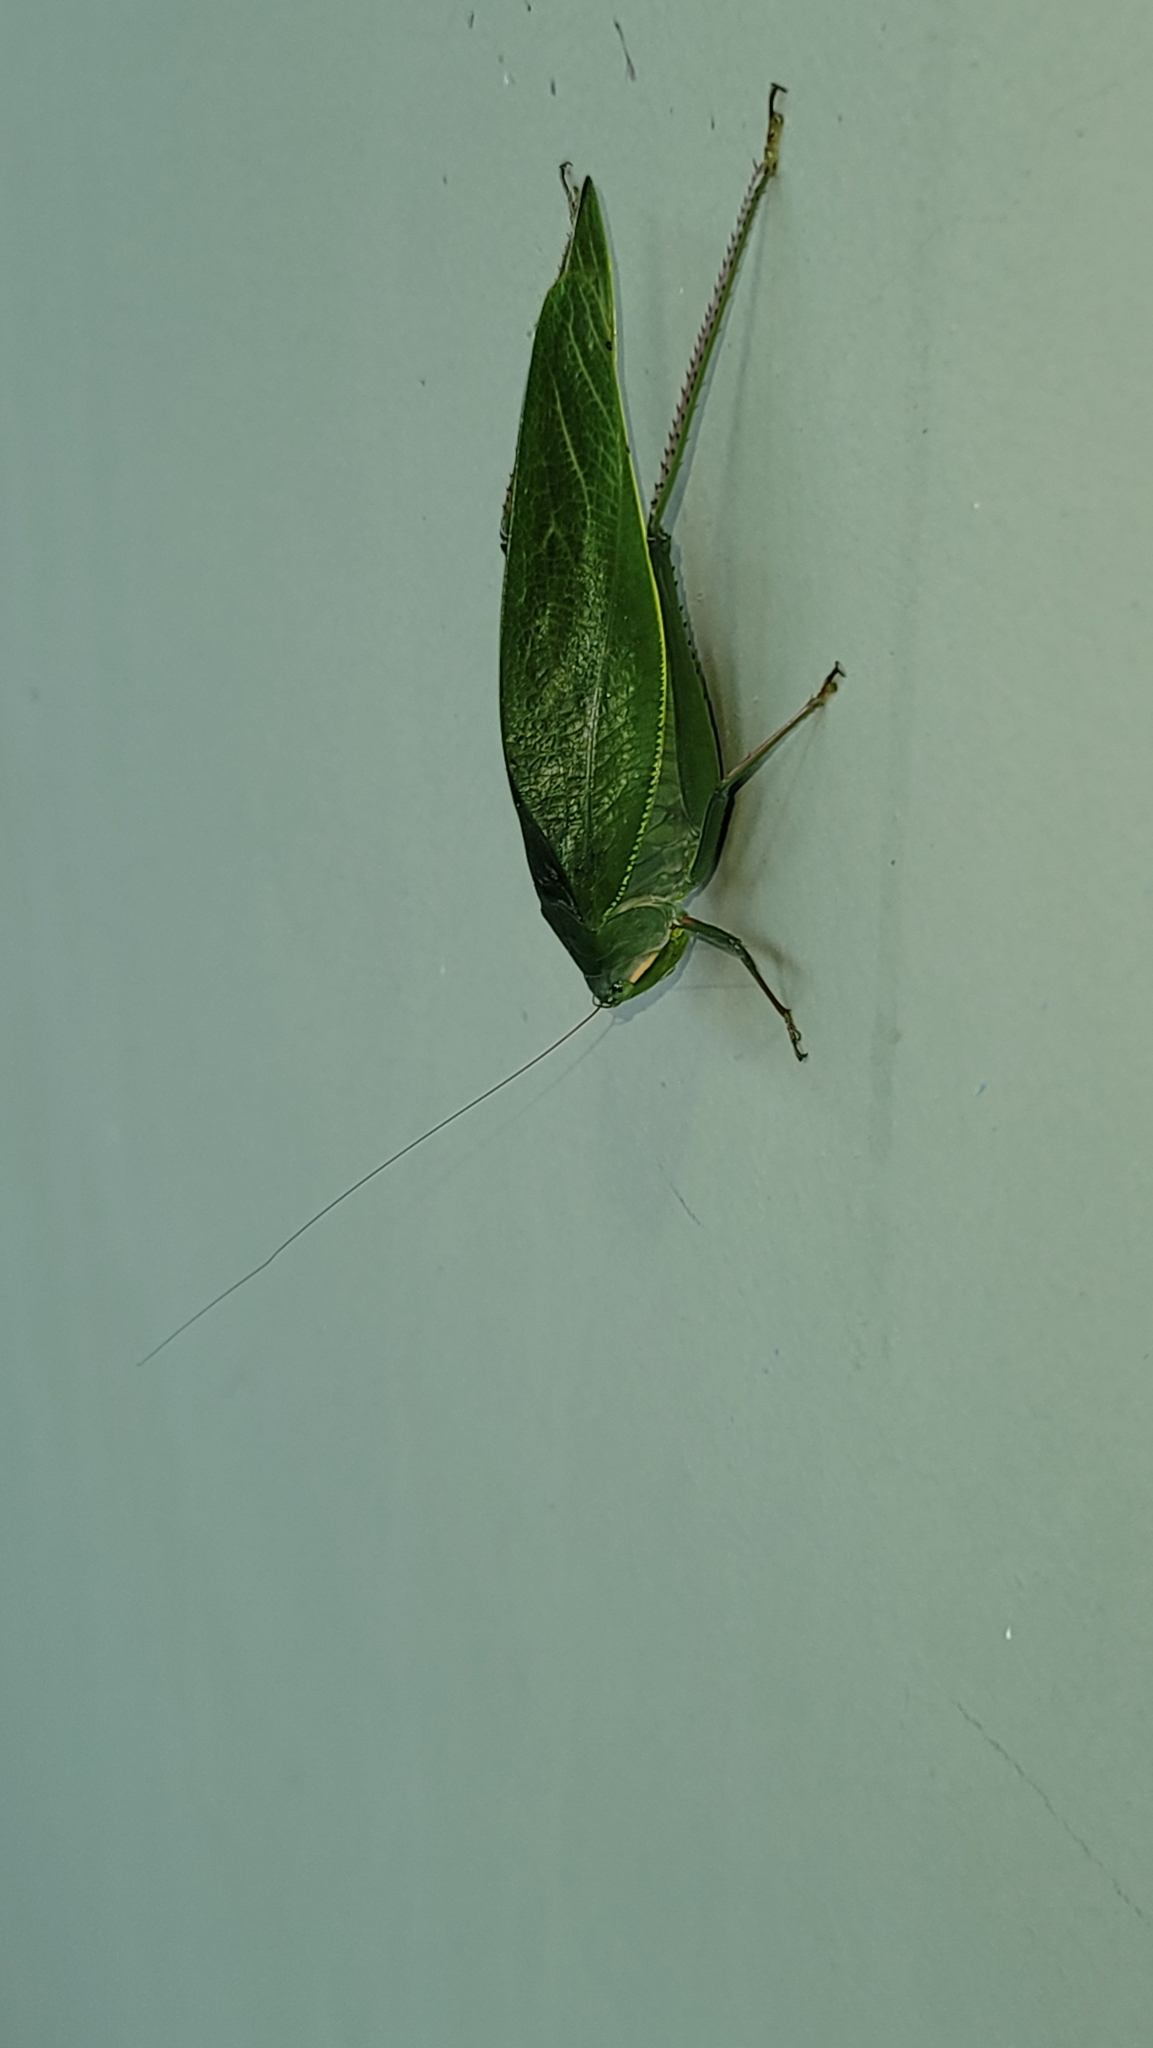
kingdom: Animalia
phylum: Arthropoda
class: Insecta
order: Orthoptera
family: Tettigoniidae
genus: Philophyllia
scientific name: Philophyllia ingens
